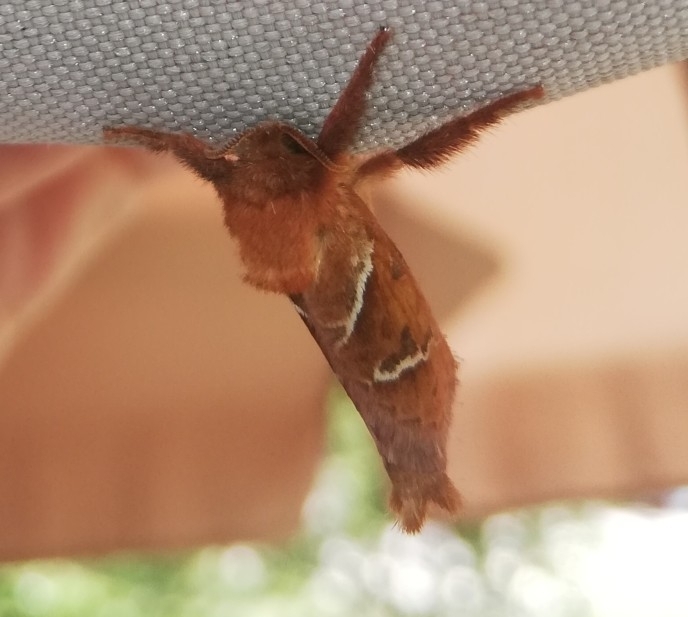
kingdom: Animalia
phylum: Arthropoda
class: Insecta
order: Lepidoptera
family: Hepialidae
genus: Triodia
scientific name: Triodia sylvina
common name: Orange swift
